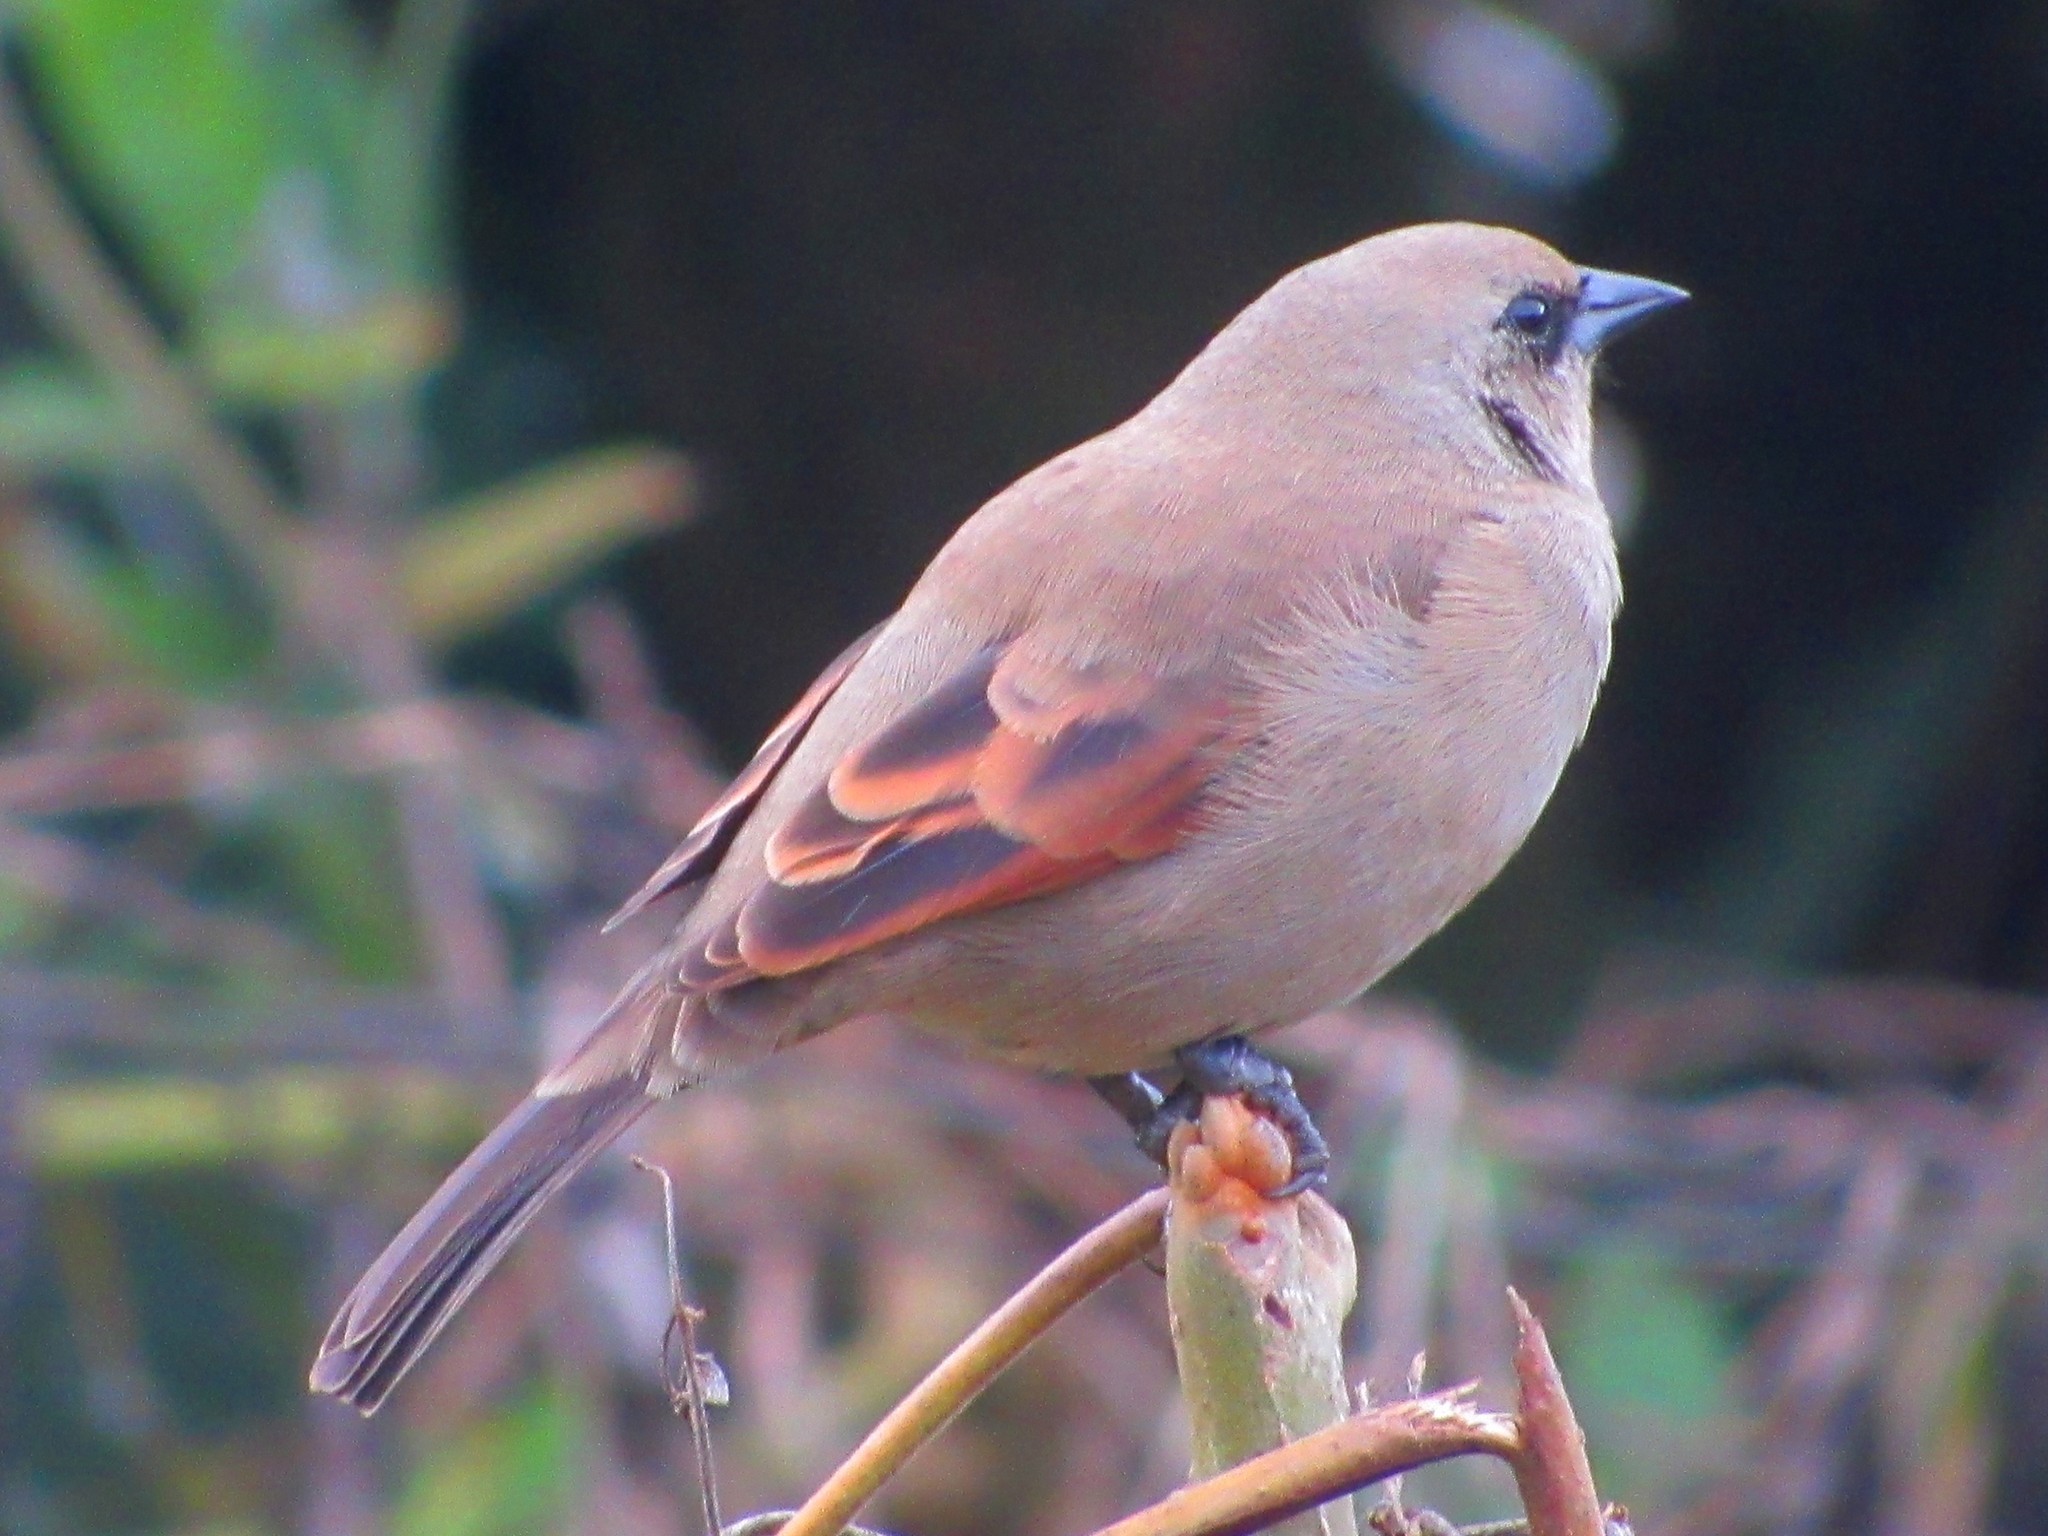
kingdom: Animalia
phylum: Chordata
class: Aves
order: Passeriformes
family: Icteridae
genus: Agelaioides
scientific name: Agelaioides badius
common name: Baywing
